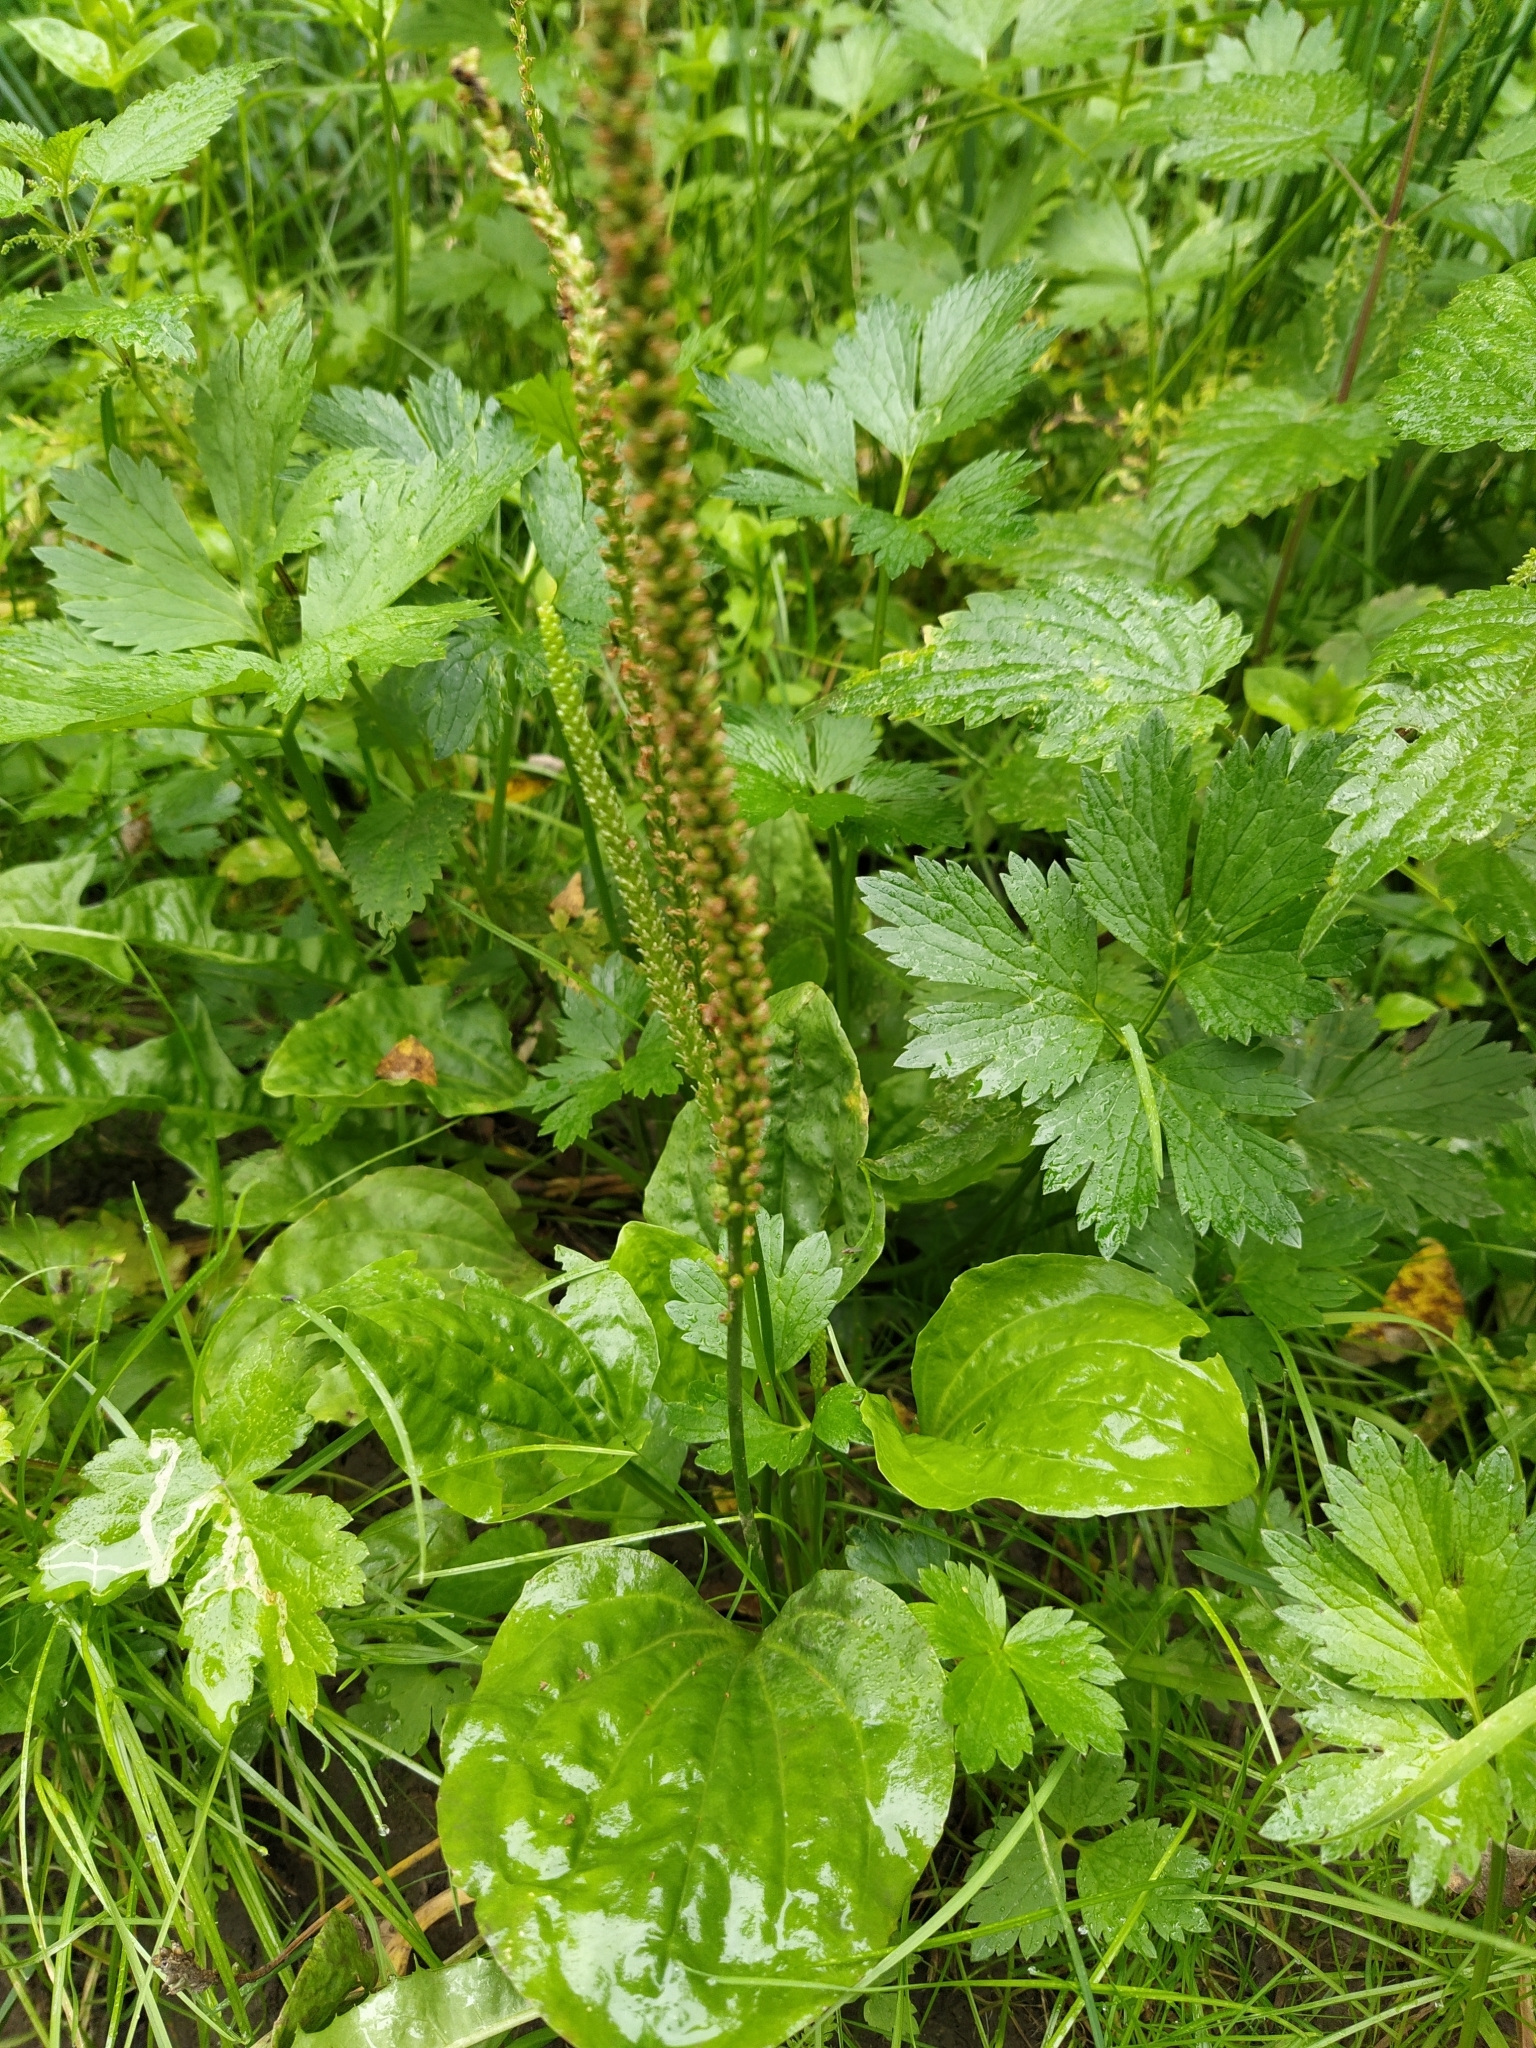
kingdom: Plantae
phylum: Tracheophyta
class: Magnoliopsida
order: Lamiales
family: Plantaginaceae
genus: Plantago
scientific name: Plantago major
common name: Common plantain
